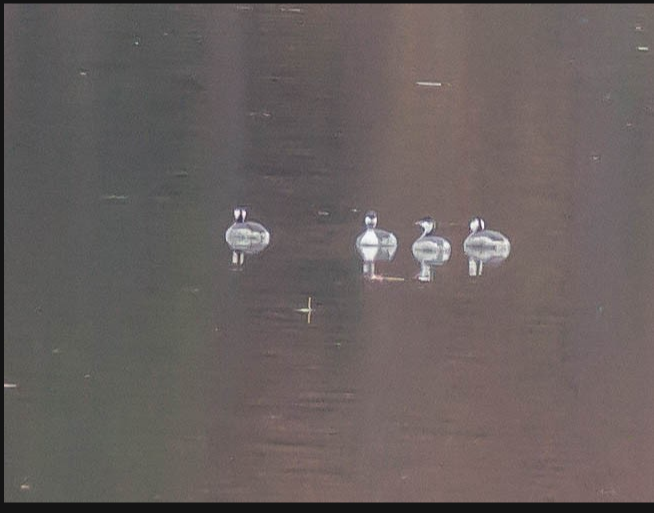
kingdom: Animalia
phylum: Chordata
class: Aves
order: Podicipediformes
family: Podicipedidae
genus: Podiceps
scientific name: Podiceps auritus
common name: Horned grebe
